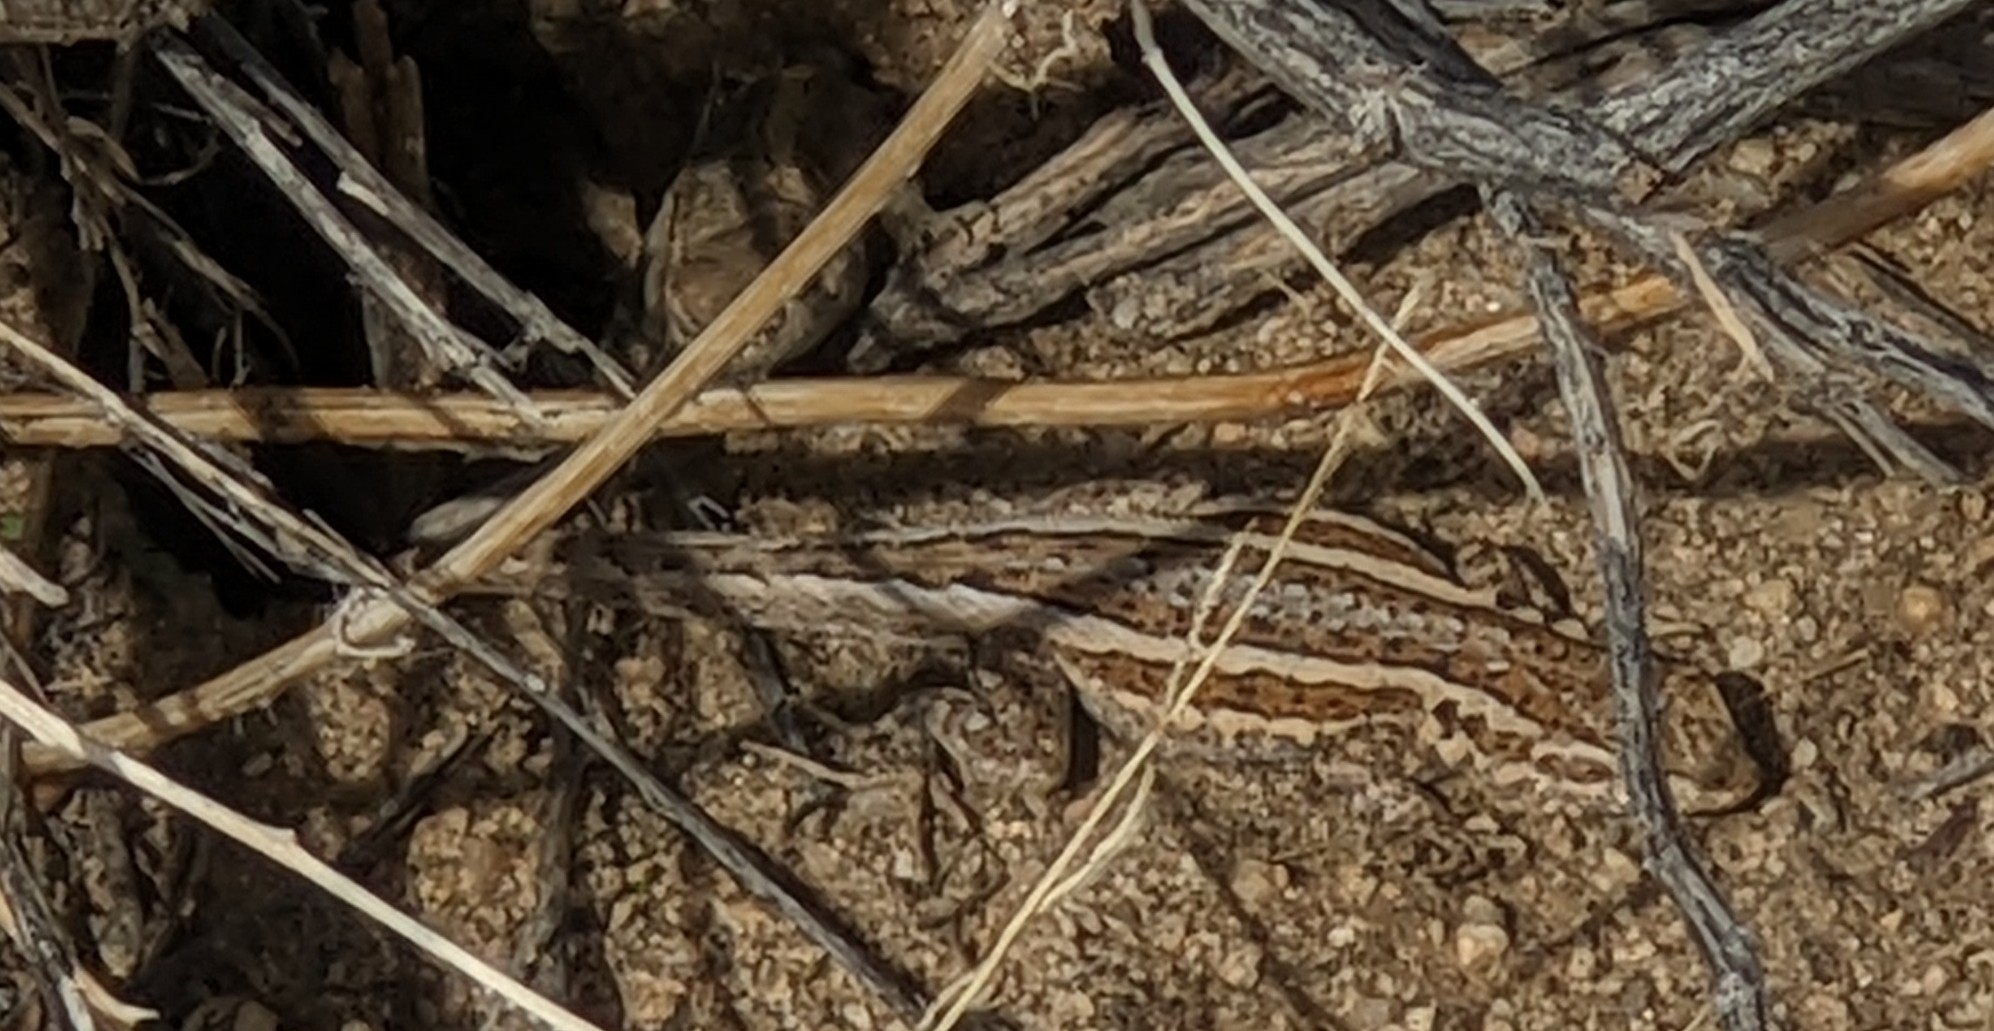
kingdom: Animalia
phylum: Chordata
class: Squamata
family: Phrynosomatidae
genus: Uta
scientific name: Uta stansburiana
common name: Side-blotched lizard
